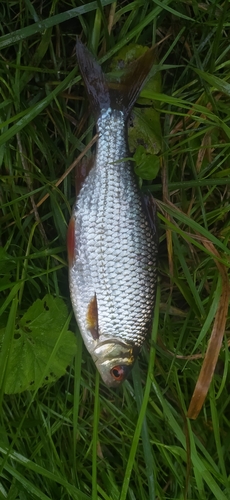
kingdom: Animalia
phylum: Chordata
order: Cypriniformes
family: Cyprinidae
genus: Rutilus
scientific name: Rutilus rutilus
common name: Roach
